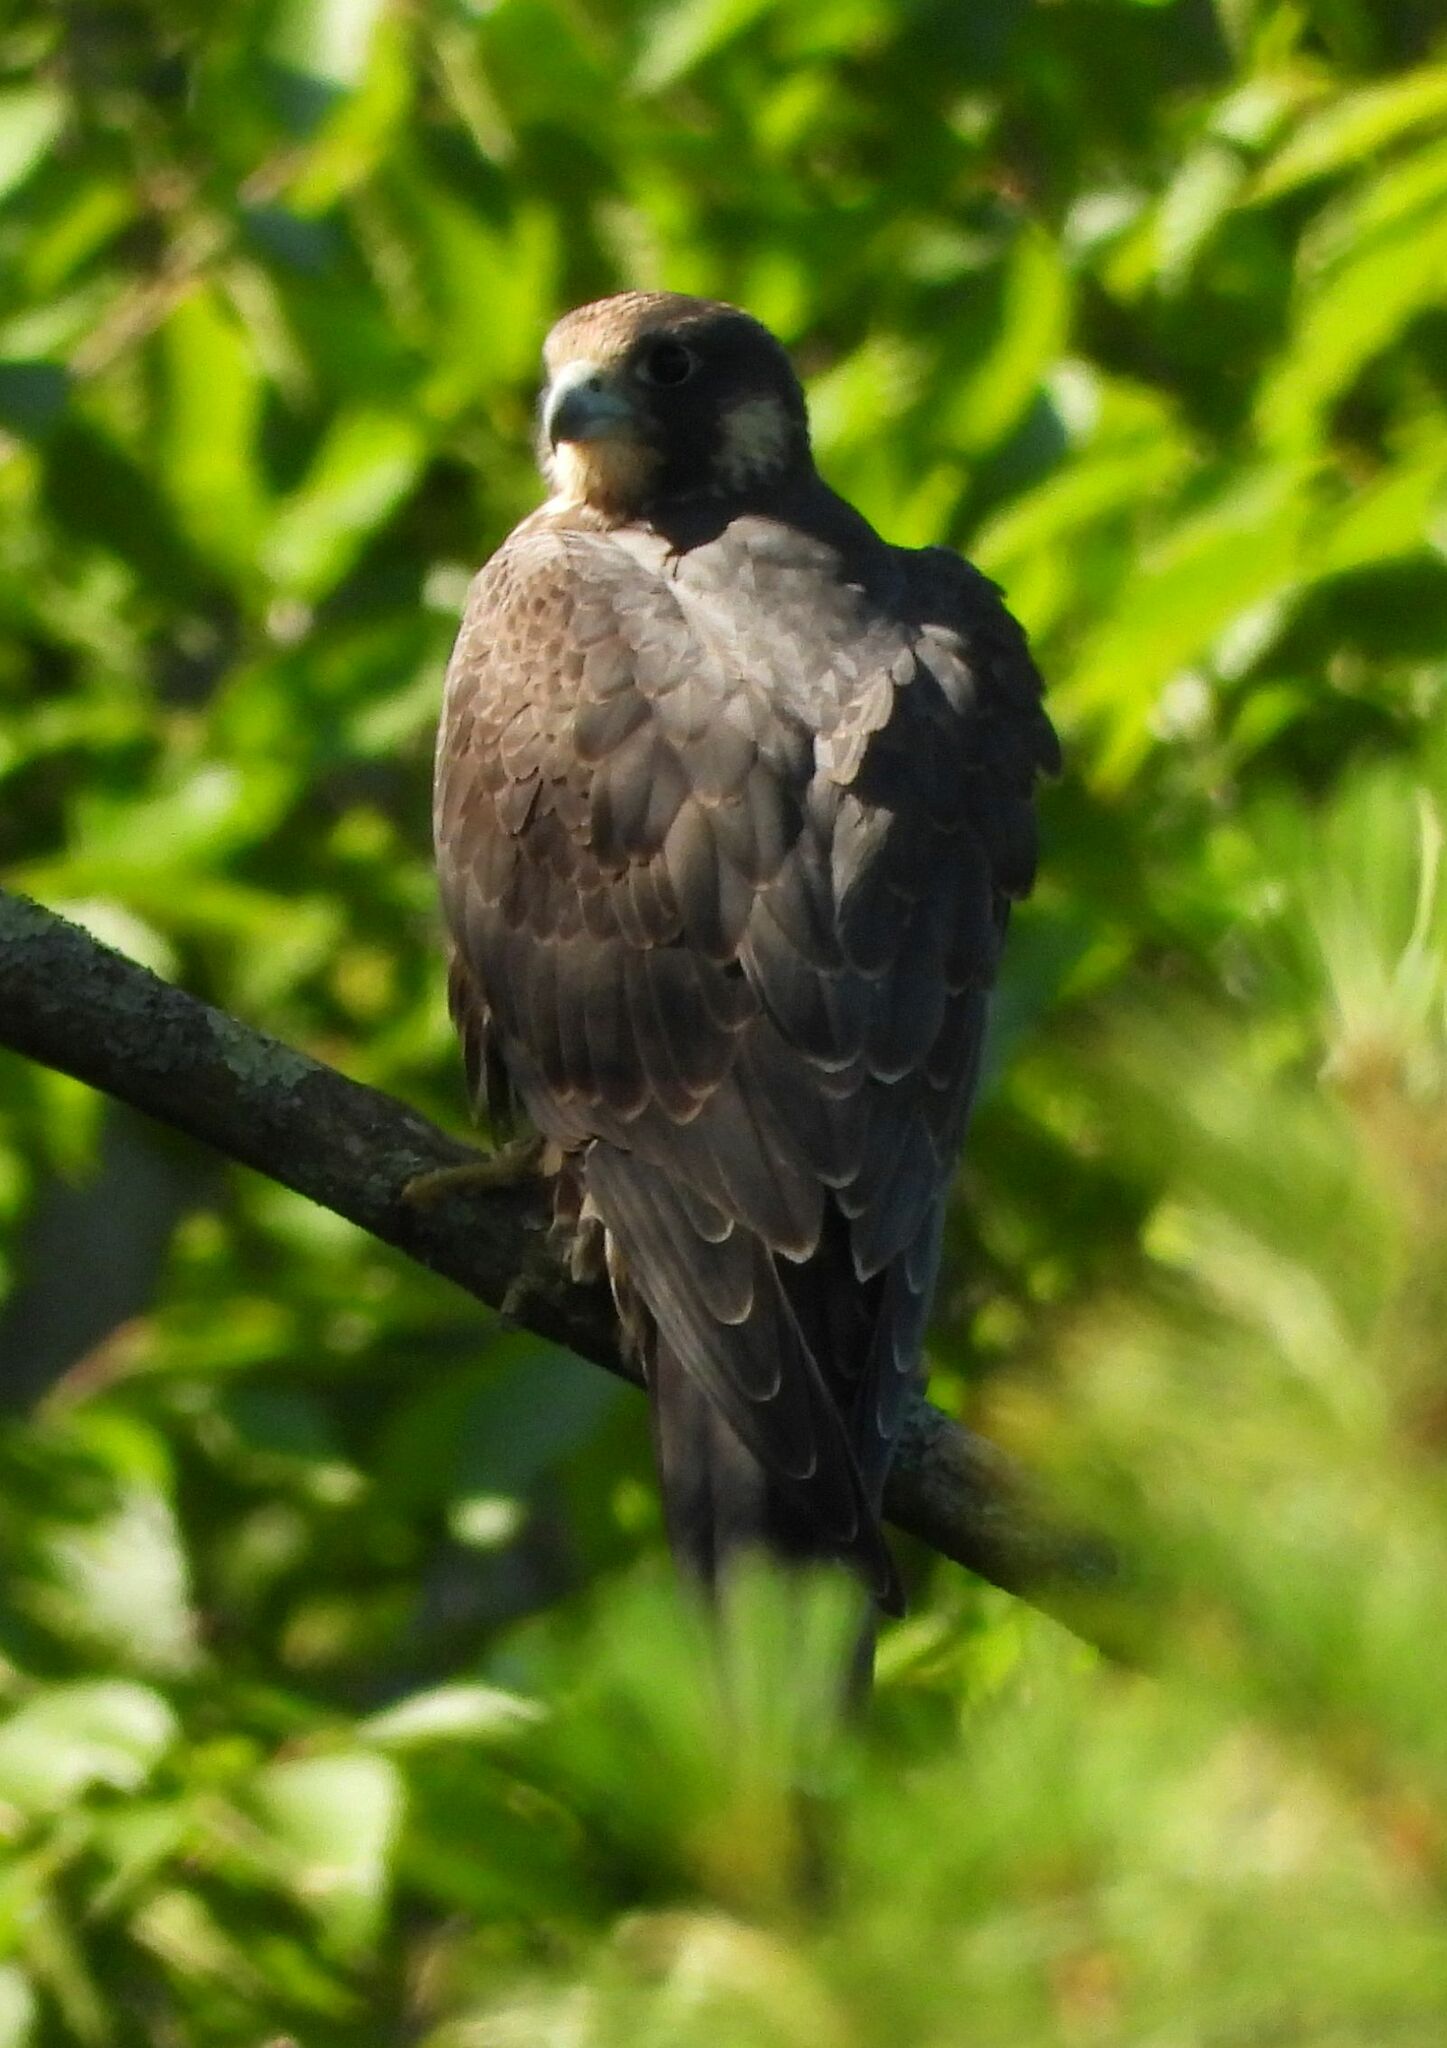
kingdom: Animalia
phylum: Chordata
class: Aves
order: Falconiformes
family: Falconidae
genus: Falco
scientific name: Falco peregrinus
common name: Peregrine falcon
